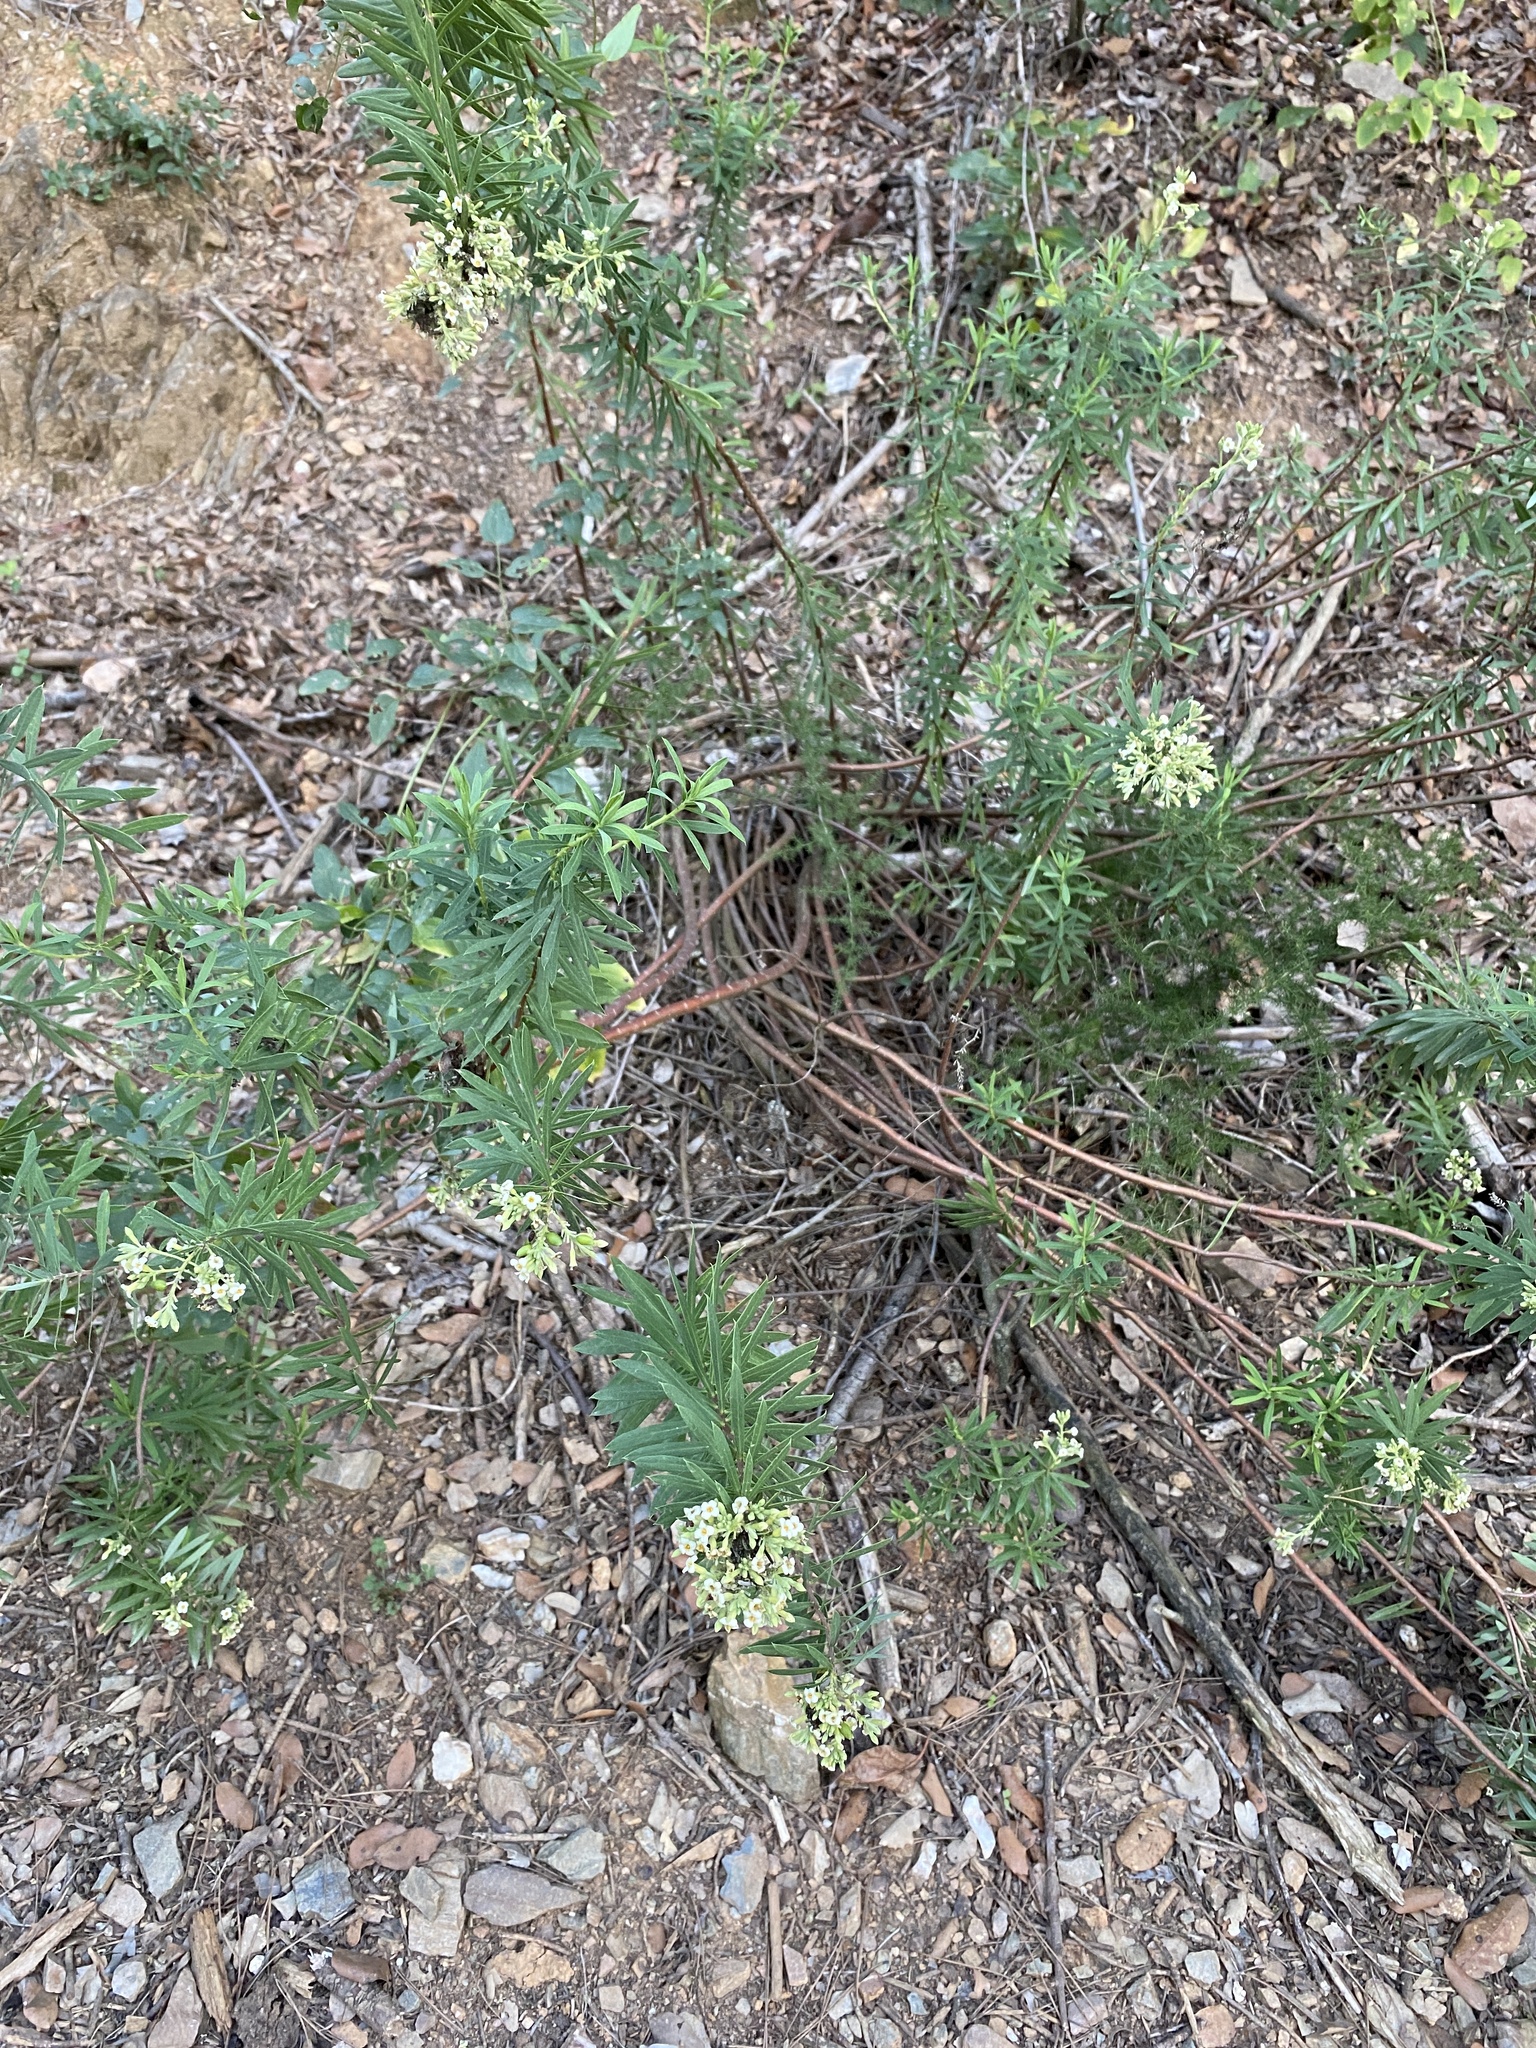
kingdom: Plantae
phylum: Tracheophyta
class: Magnoliopsida
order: Malvales
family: Thymelaeaceae
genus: Daphne
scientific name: Daphne gnidium
